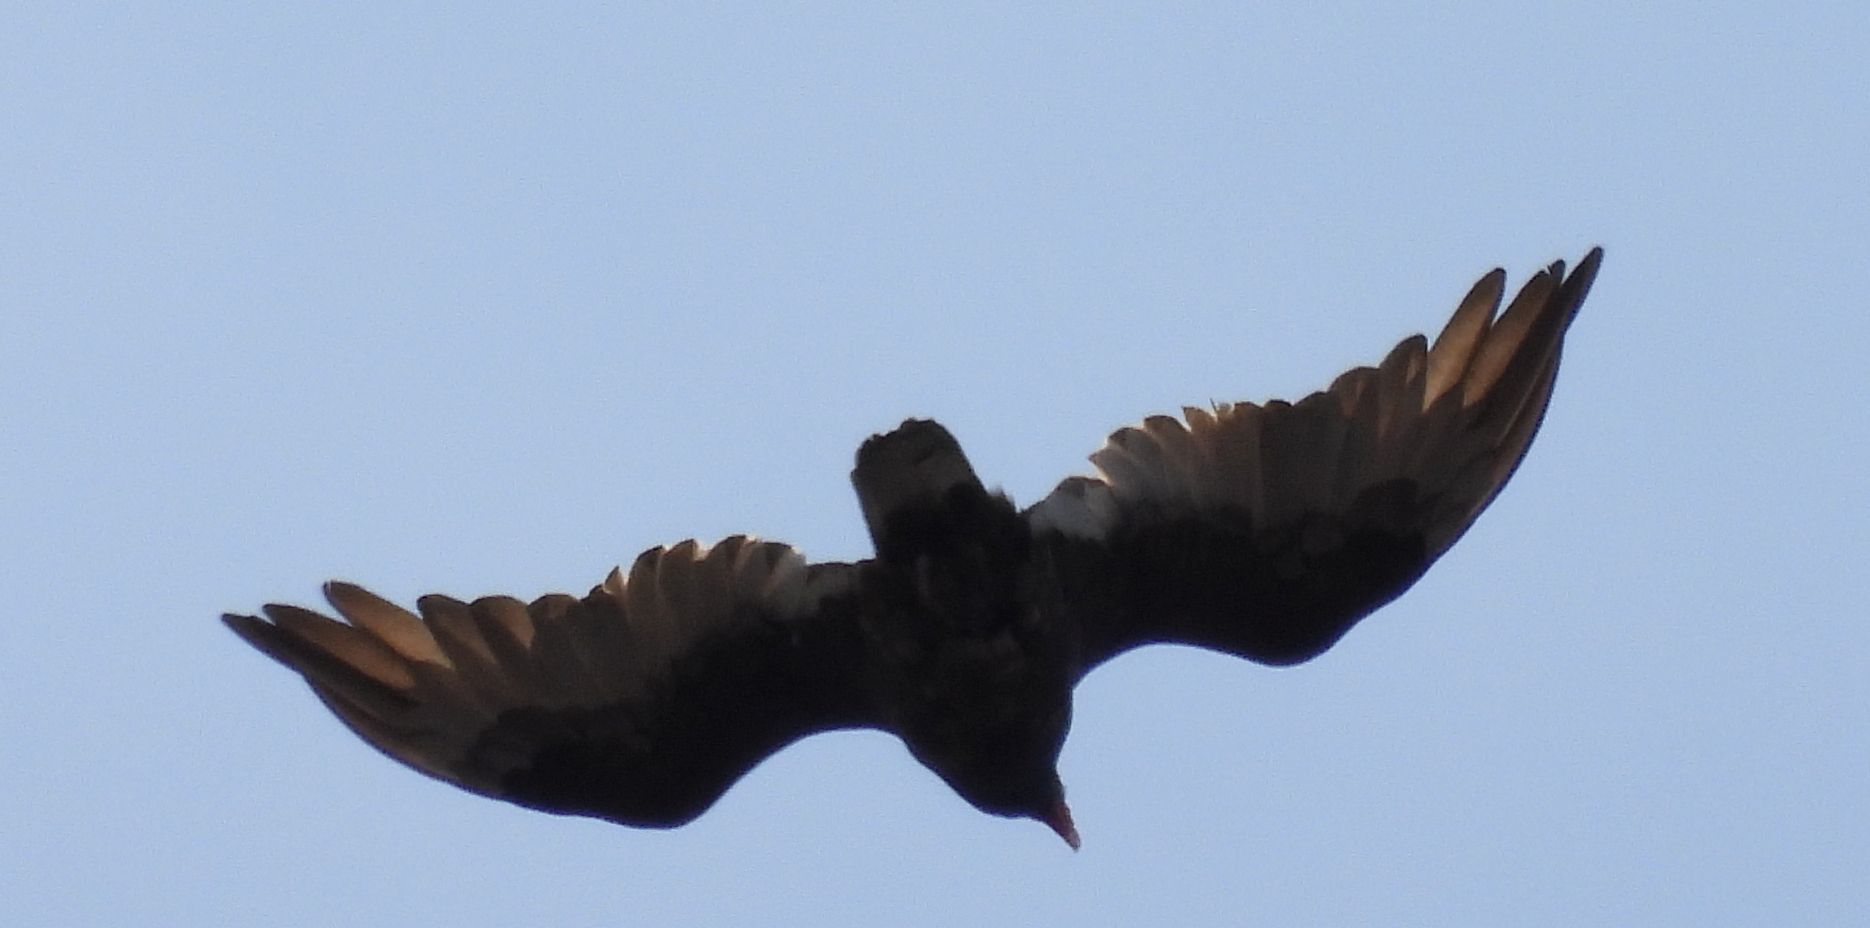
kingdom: Animalia
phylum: Chordata
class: Aves
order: Accipitriformes
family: Cathartidae
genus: Cathartes
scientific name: Cathartes aura
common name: Turkey vulture
